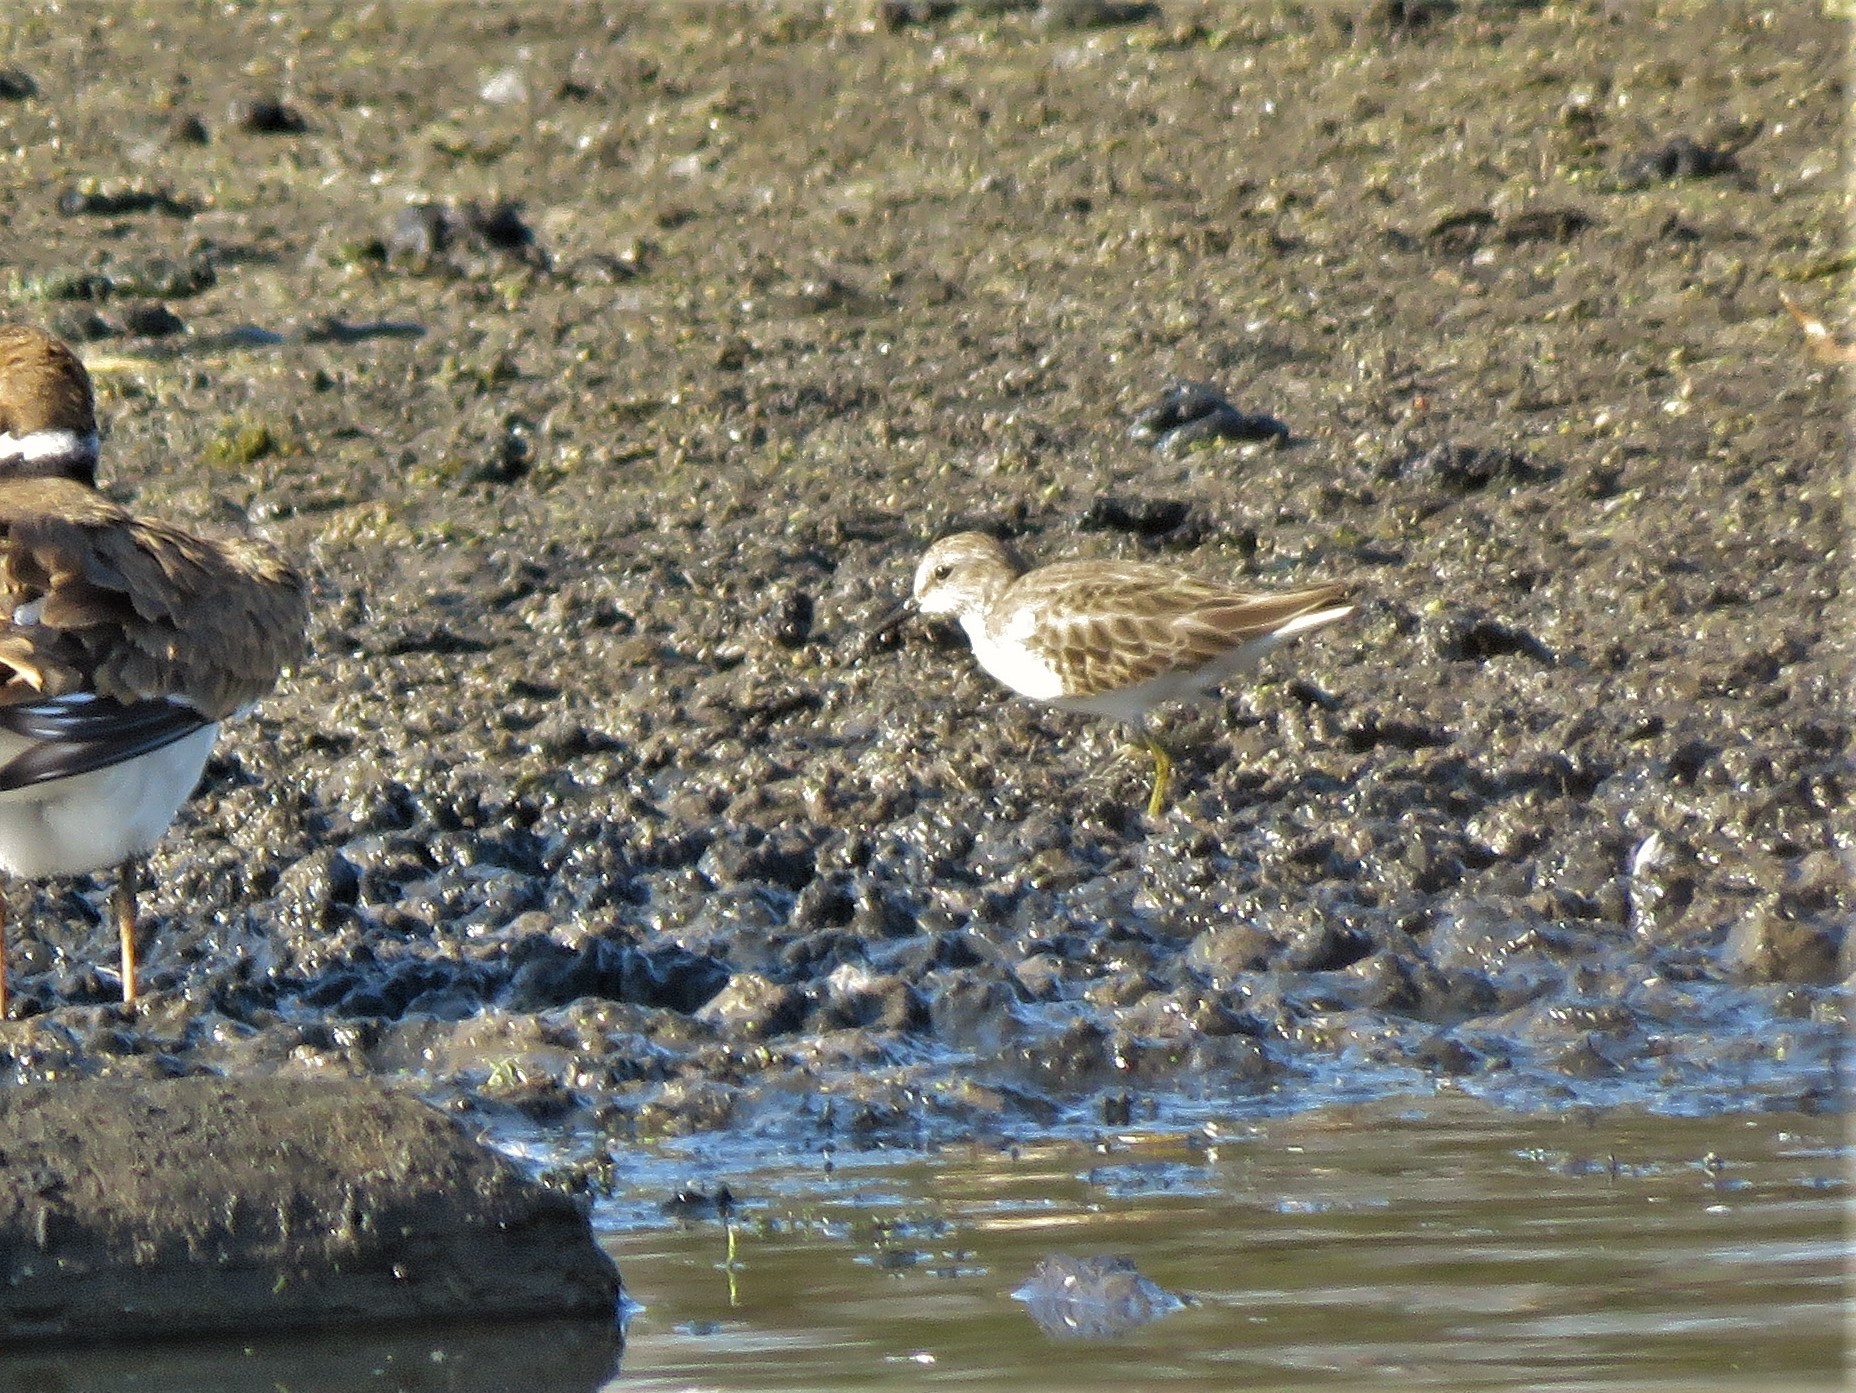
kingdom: Animalia
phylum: Chordata
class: Aves
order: Charadriiformes
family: Scolopacidae
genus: Calidris
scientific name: Calidris minutilla
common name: Least sandpiper
